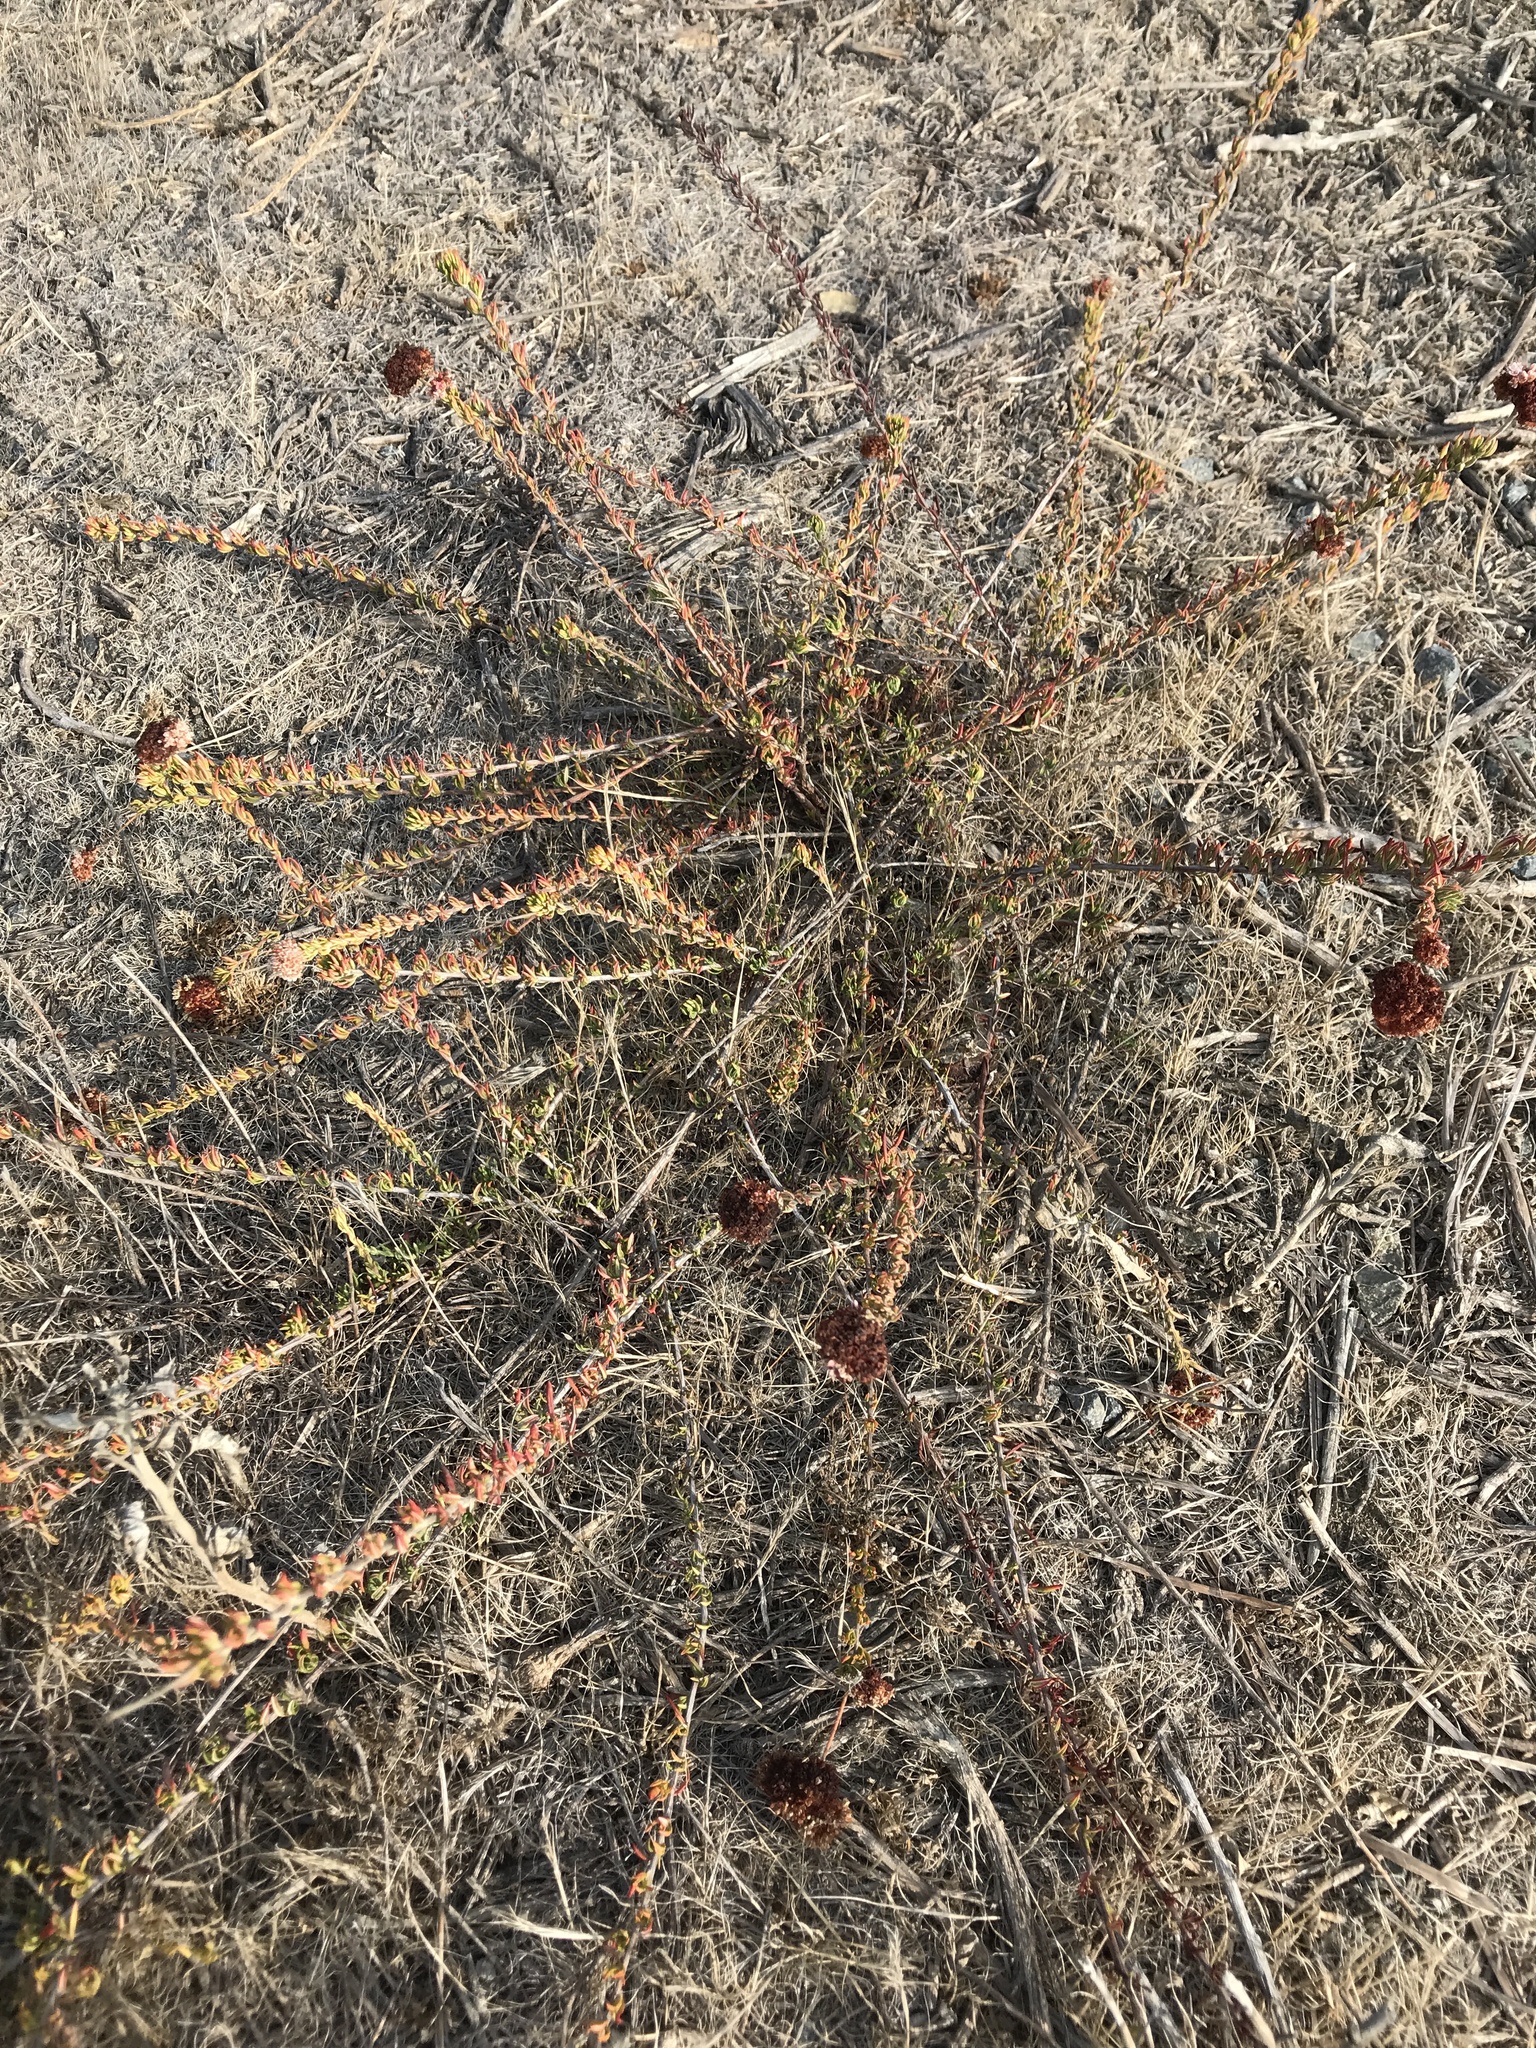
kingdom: Plantae
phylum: Tracheophyta
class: Magnoliopsida
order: Caryophyllales
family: Polygonaceae
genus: Eriogonum
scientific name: Eriogonum fasciculatum
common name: California wild buckwheat
